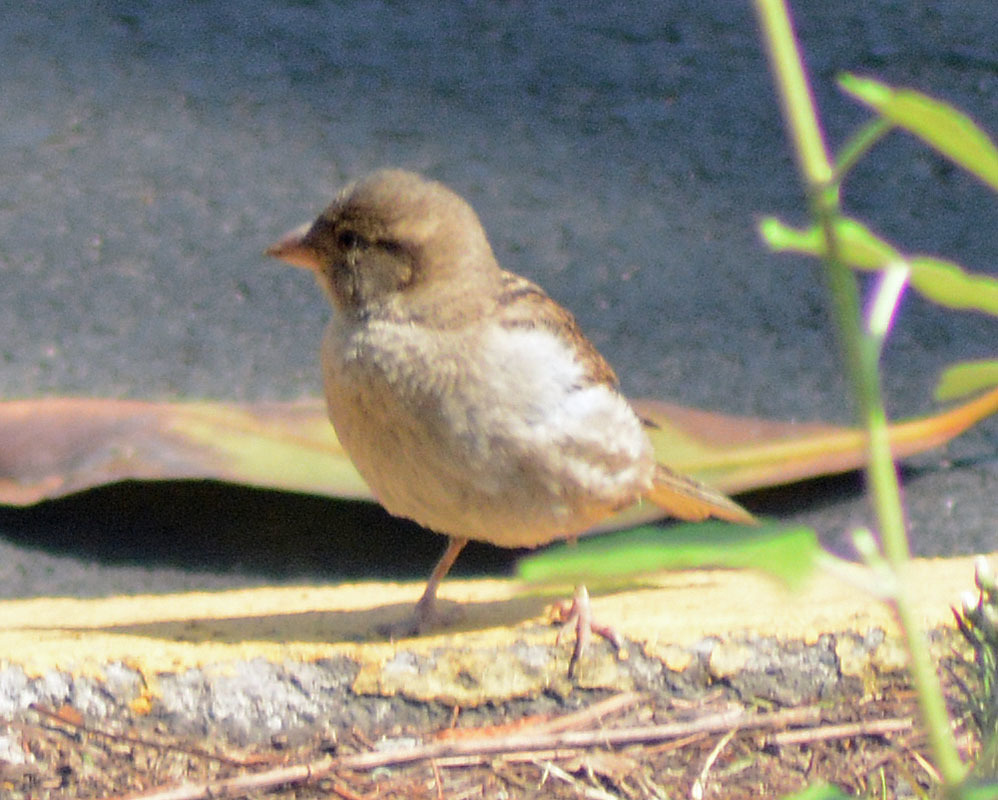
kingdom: Animalia
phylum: Chordata
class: Aves
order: Passeriformes
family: Passeridae
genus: Passer
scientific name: Passer domesticus
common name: House sparrow
